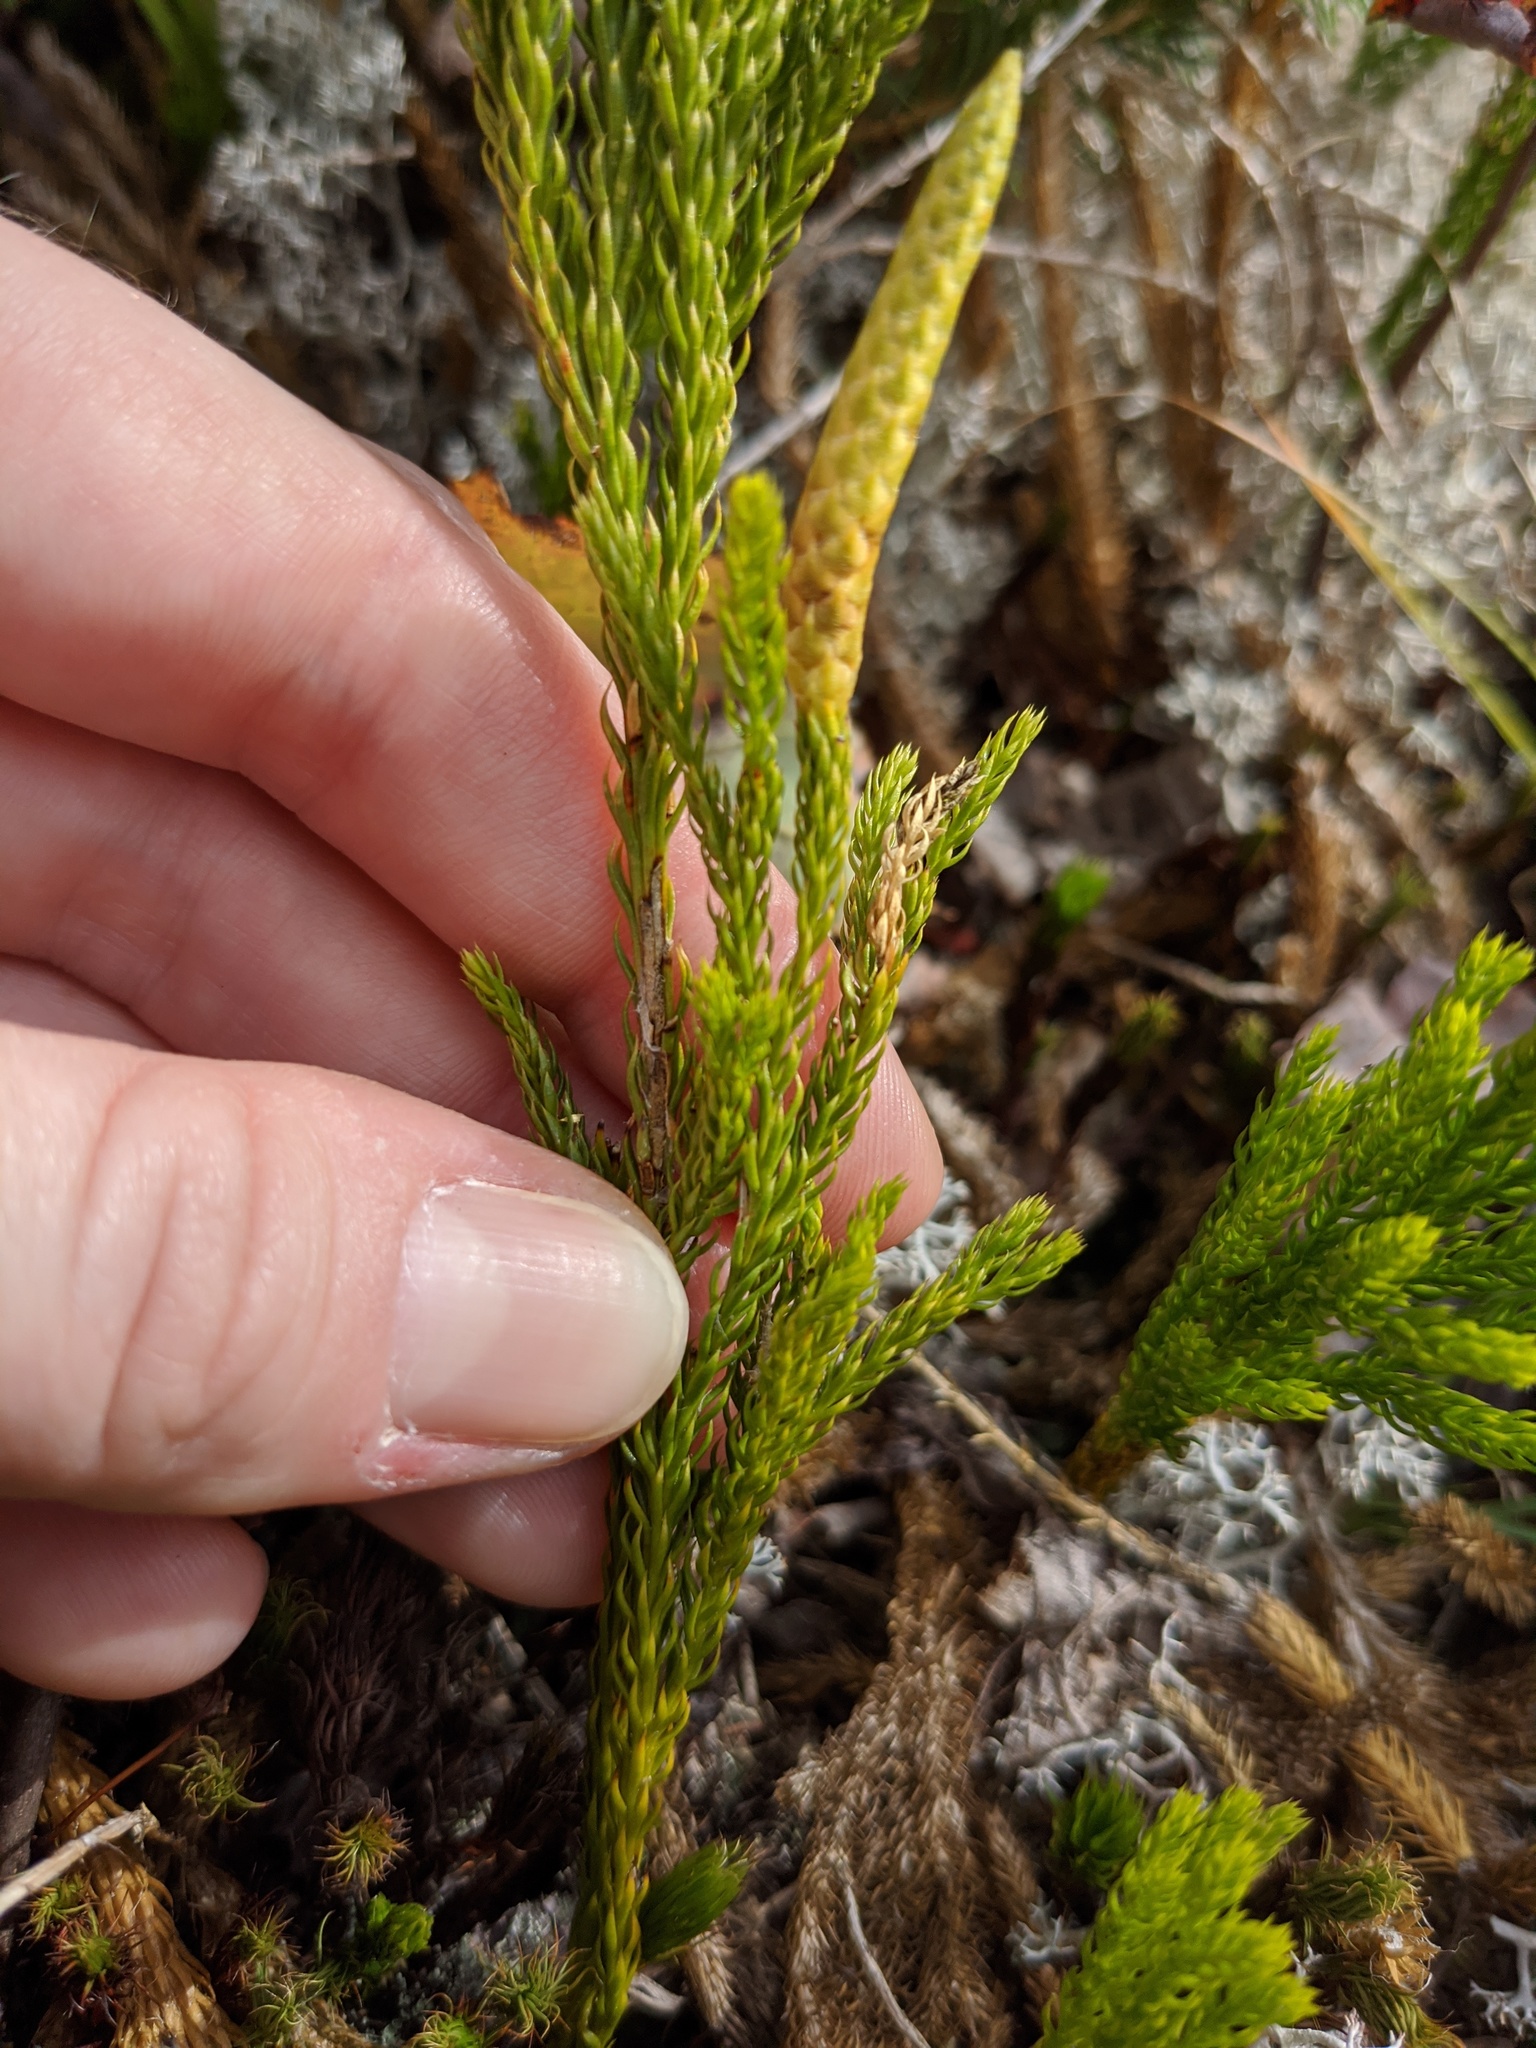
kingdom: Plantae
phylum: Tracheophyta
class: Lycopodiopsida
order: Lycopodiales
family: Lycopodiaceae
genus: Dendrolycopodium
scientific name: Dendrolycopodium hickeyi
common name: Hickey's clubmoss
